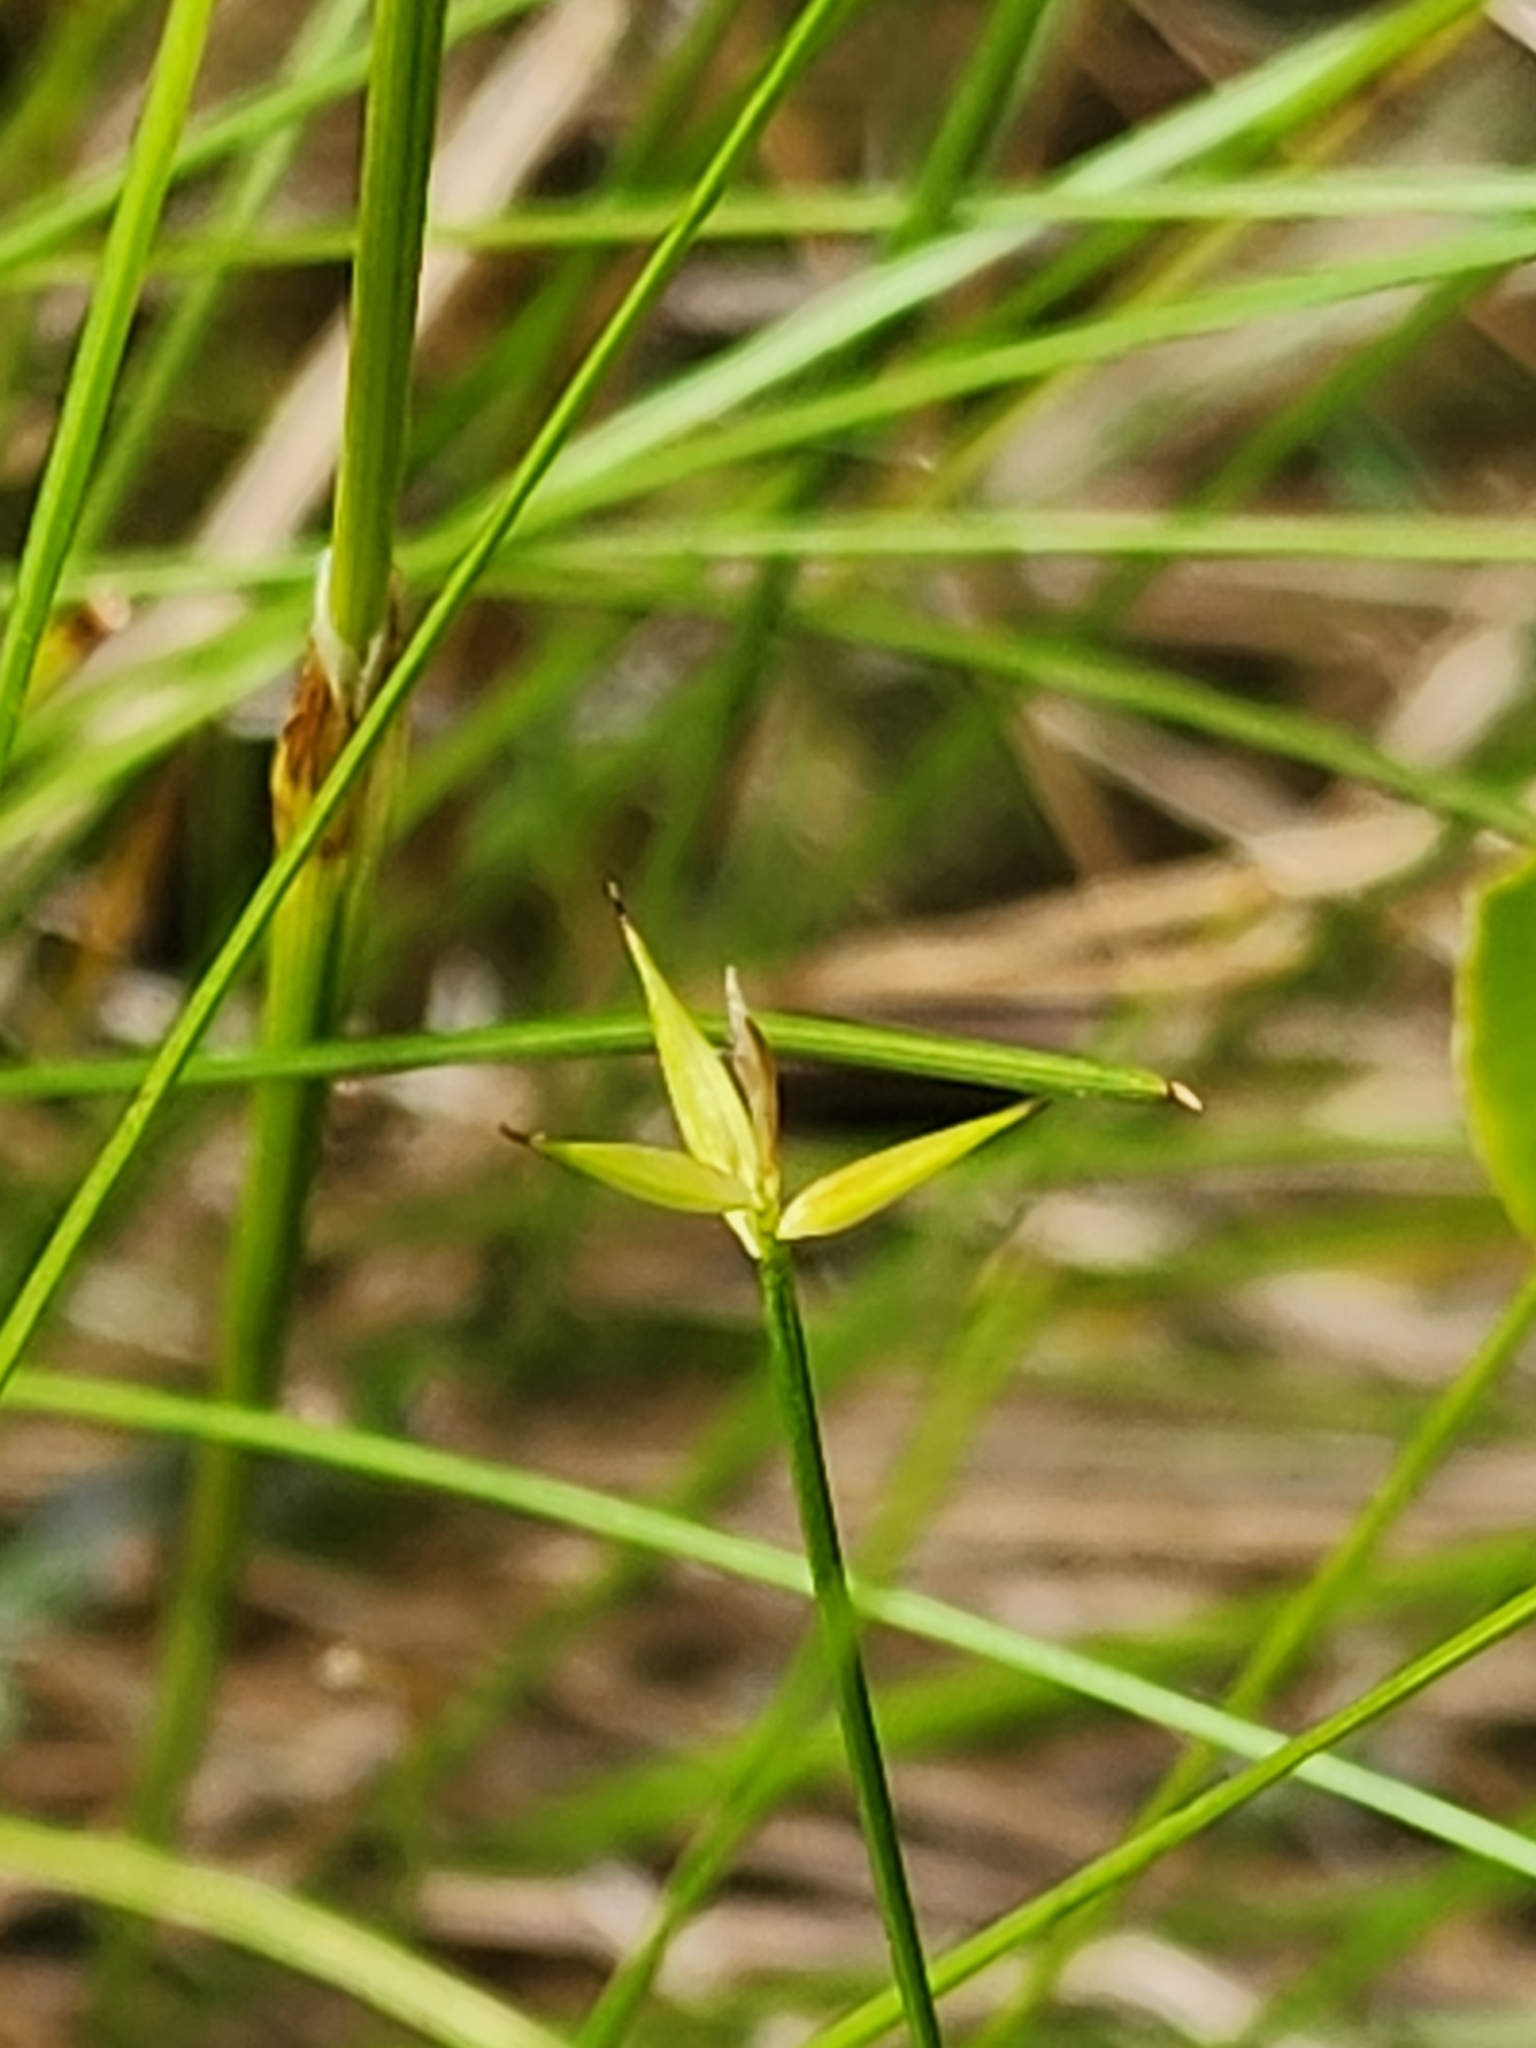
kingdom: Plantae
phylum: Tracheophyta
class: Liliopsida
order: Poales
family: Cyperaceae
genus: Carex
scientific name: Carex pauciflora
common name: Few-flowered sedge
